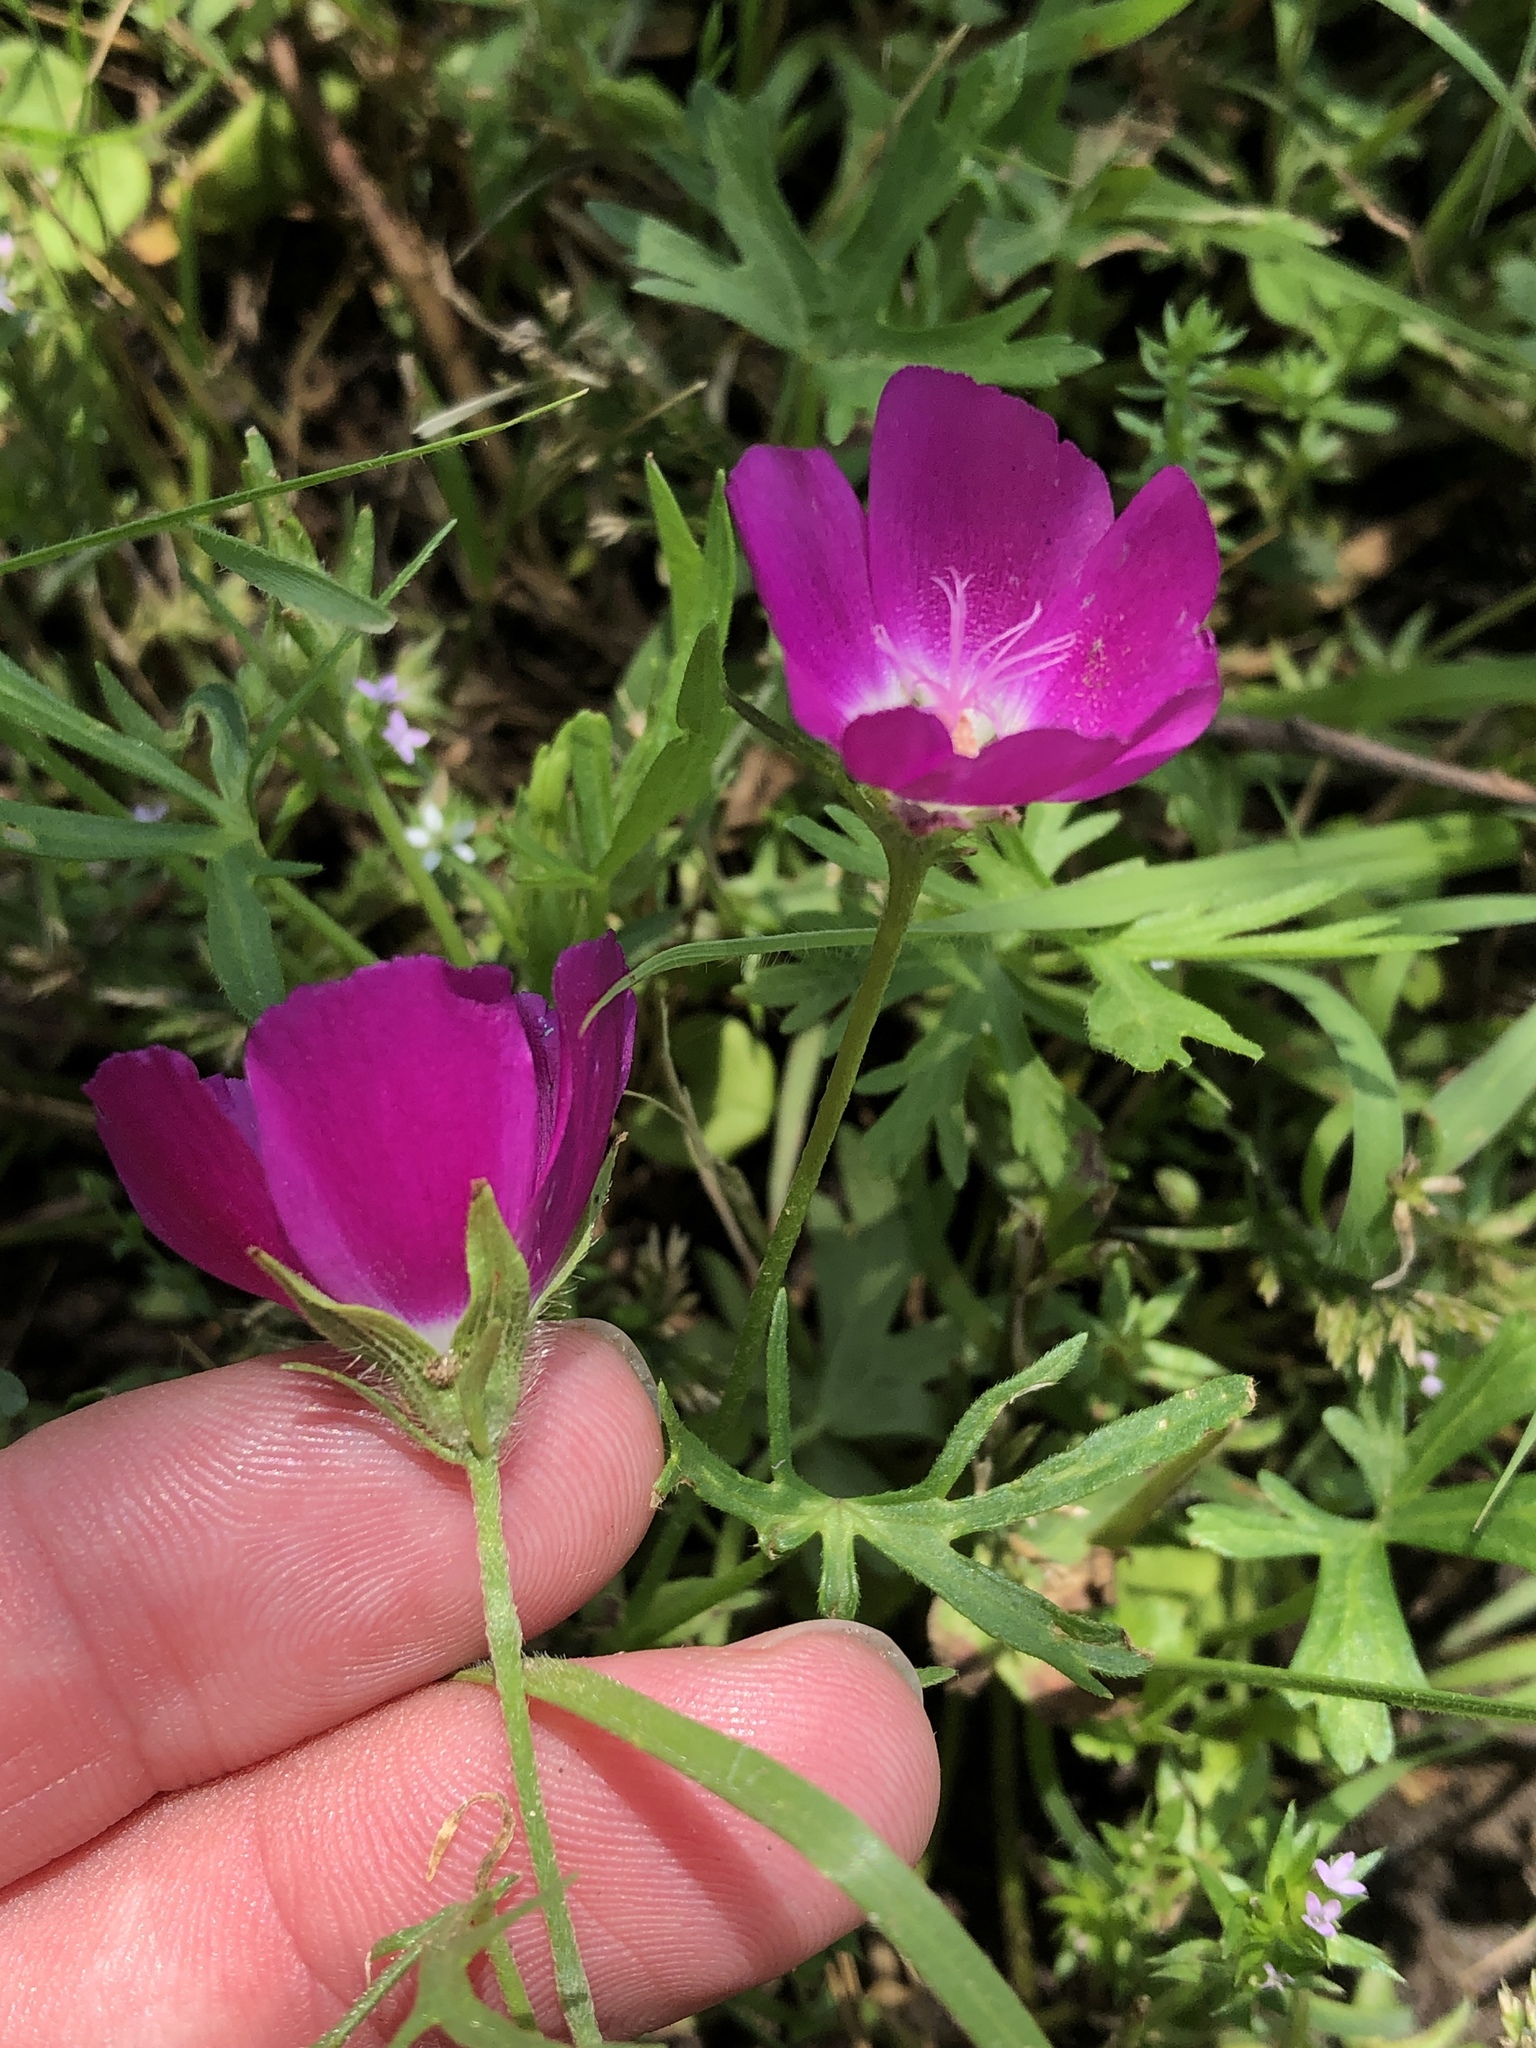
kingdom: Plantae
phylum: Tracheophyta
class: Magnoliopsida
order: Malvales
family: Malvaceae
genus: Callirhoe
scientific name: Callirhoe involucrata
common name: Purple poppy-mallow
